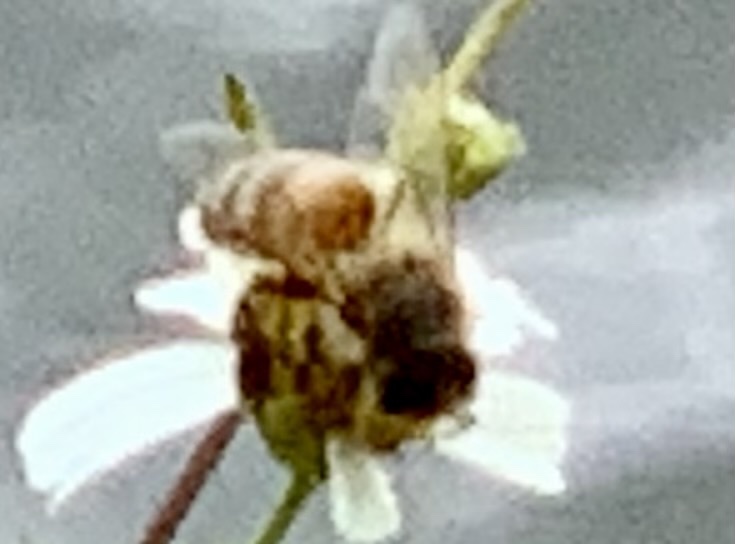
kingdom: Animalia
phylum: Arthropoda
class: Insecta
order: Hymenoptera
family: Apidae
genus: Apis
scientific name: Apis mellifera
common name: Honey bee
